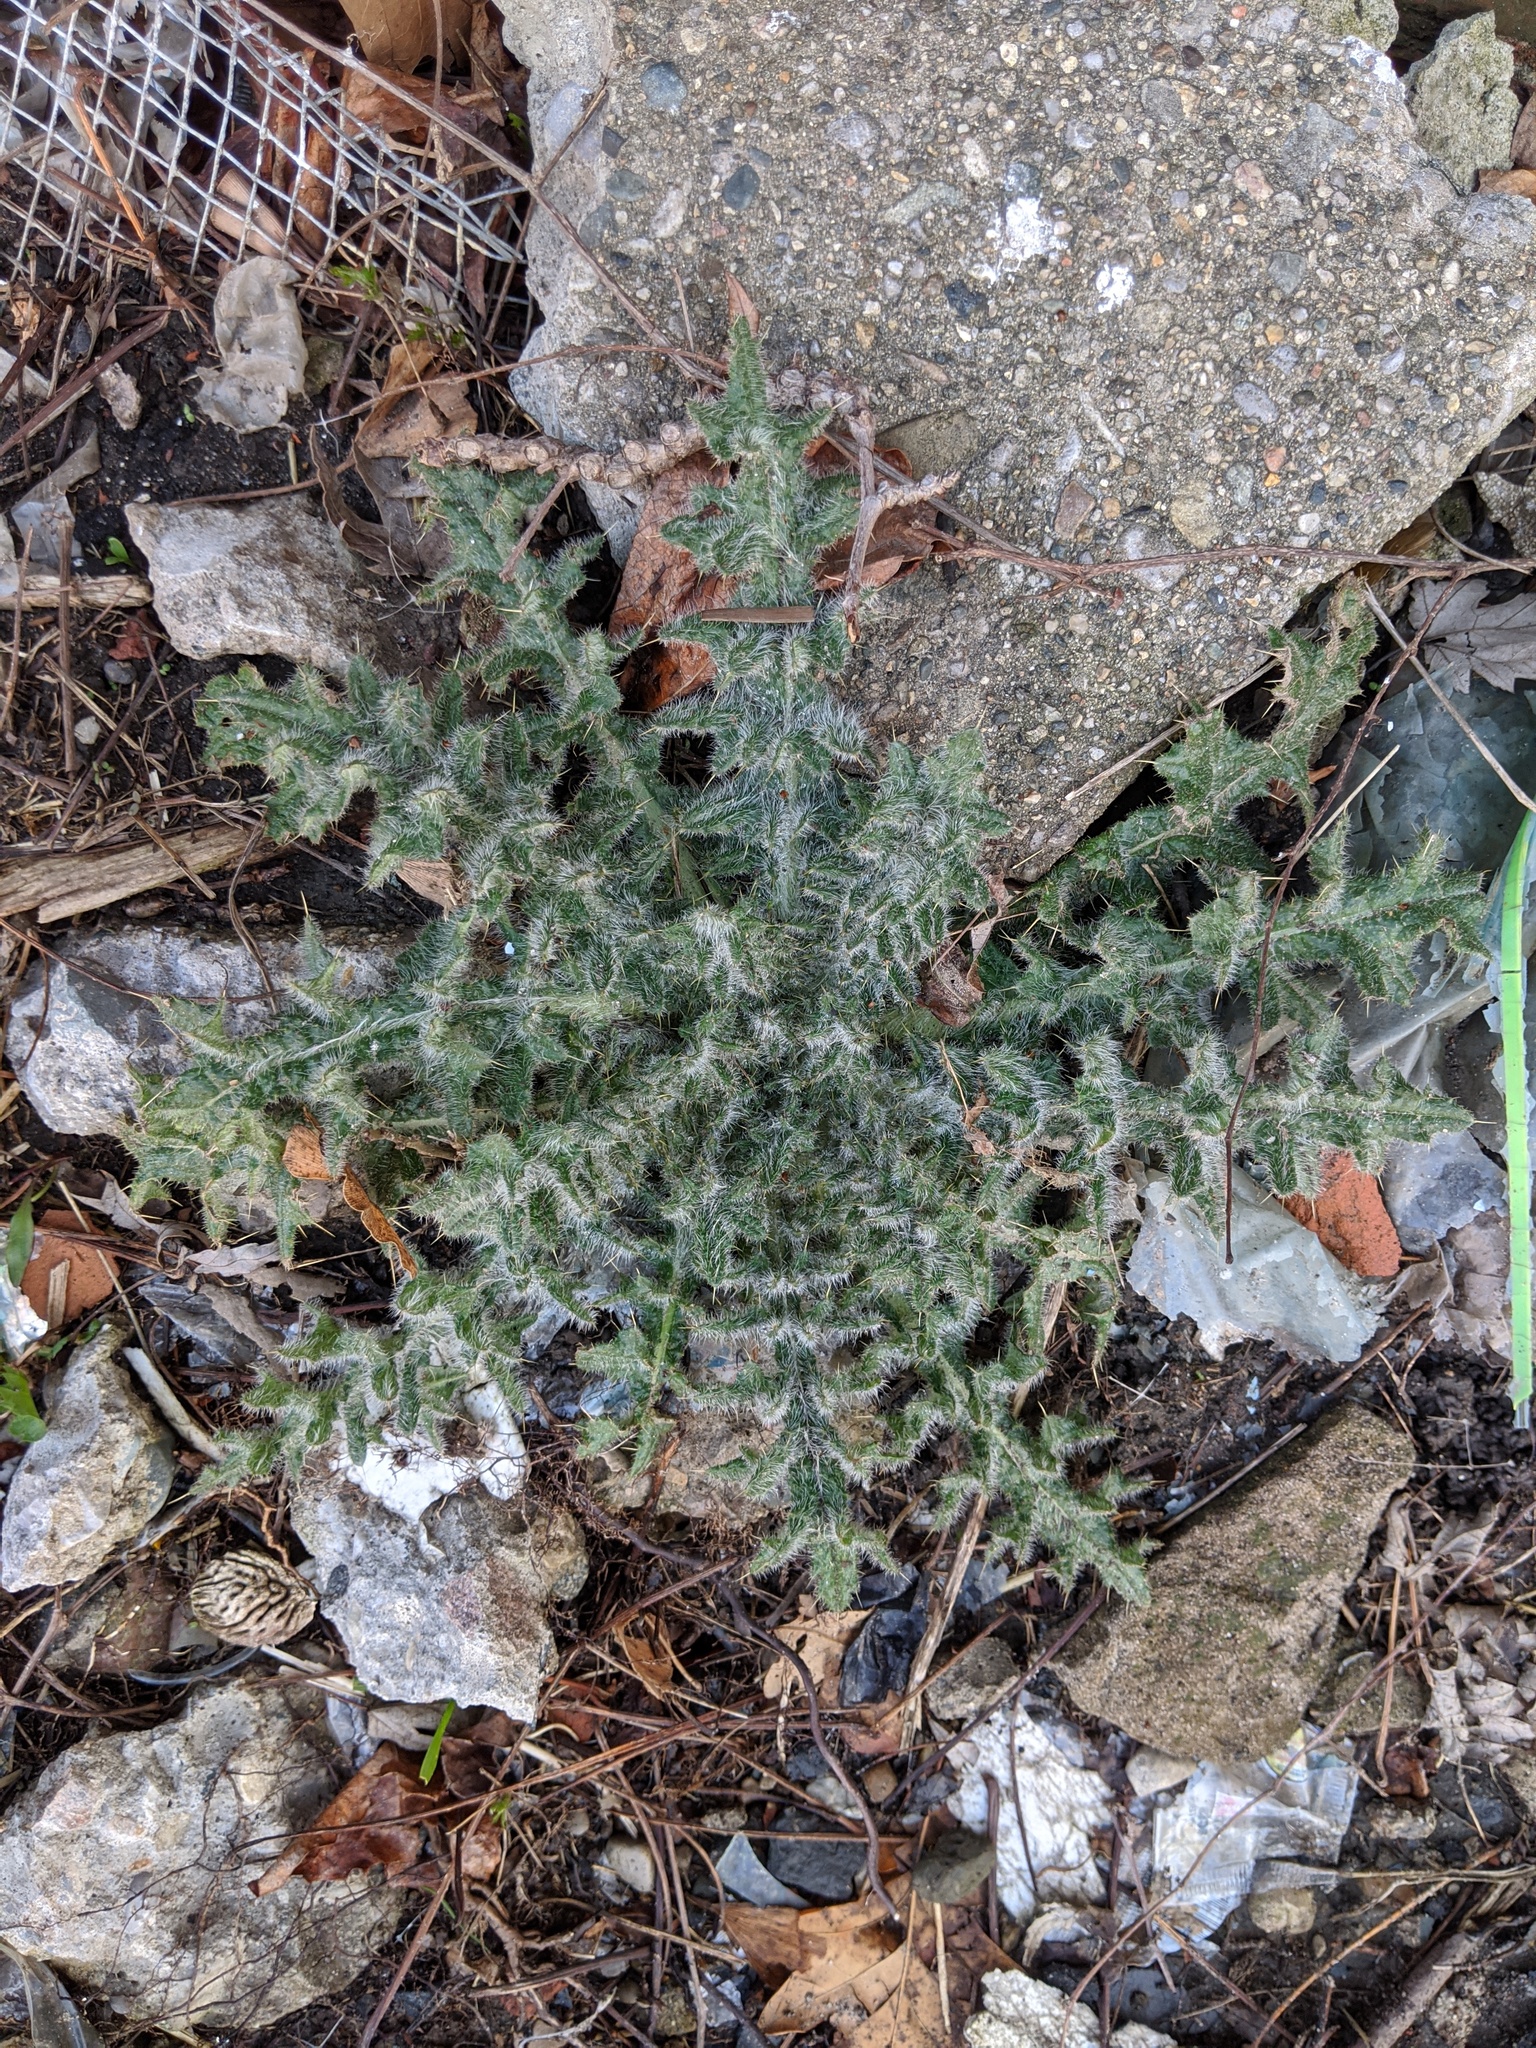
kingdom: Plantae
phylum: Tracheophyta
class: Magnoliopsida
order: Asterales
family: Asteraceae
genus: Cirsium
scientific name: Cirsium vulgare
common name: Bull thistle
